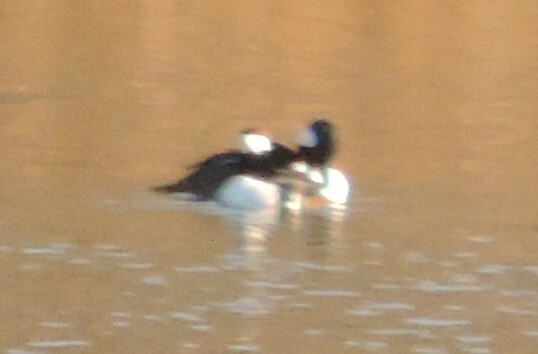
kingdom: Animalia
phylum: Chordata
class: Aves
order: Anseriformes
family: Anatidae
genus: Bucephala
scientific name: Bucephala albeola
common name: Bufflehead
